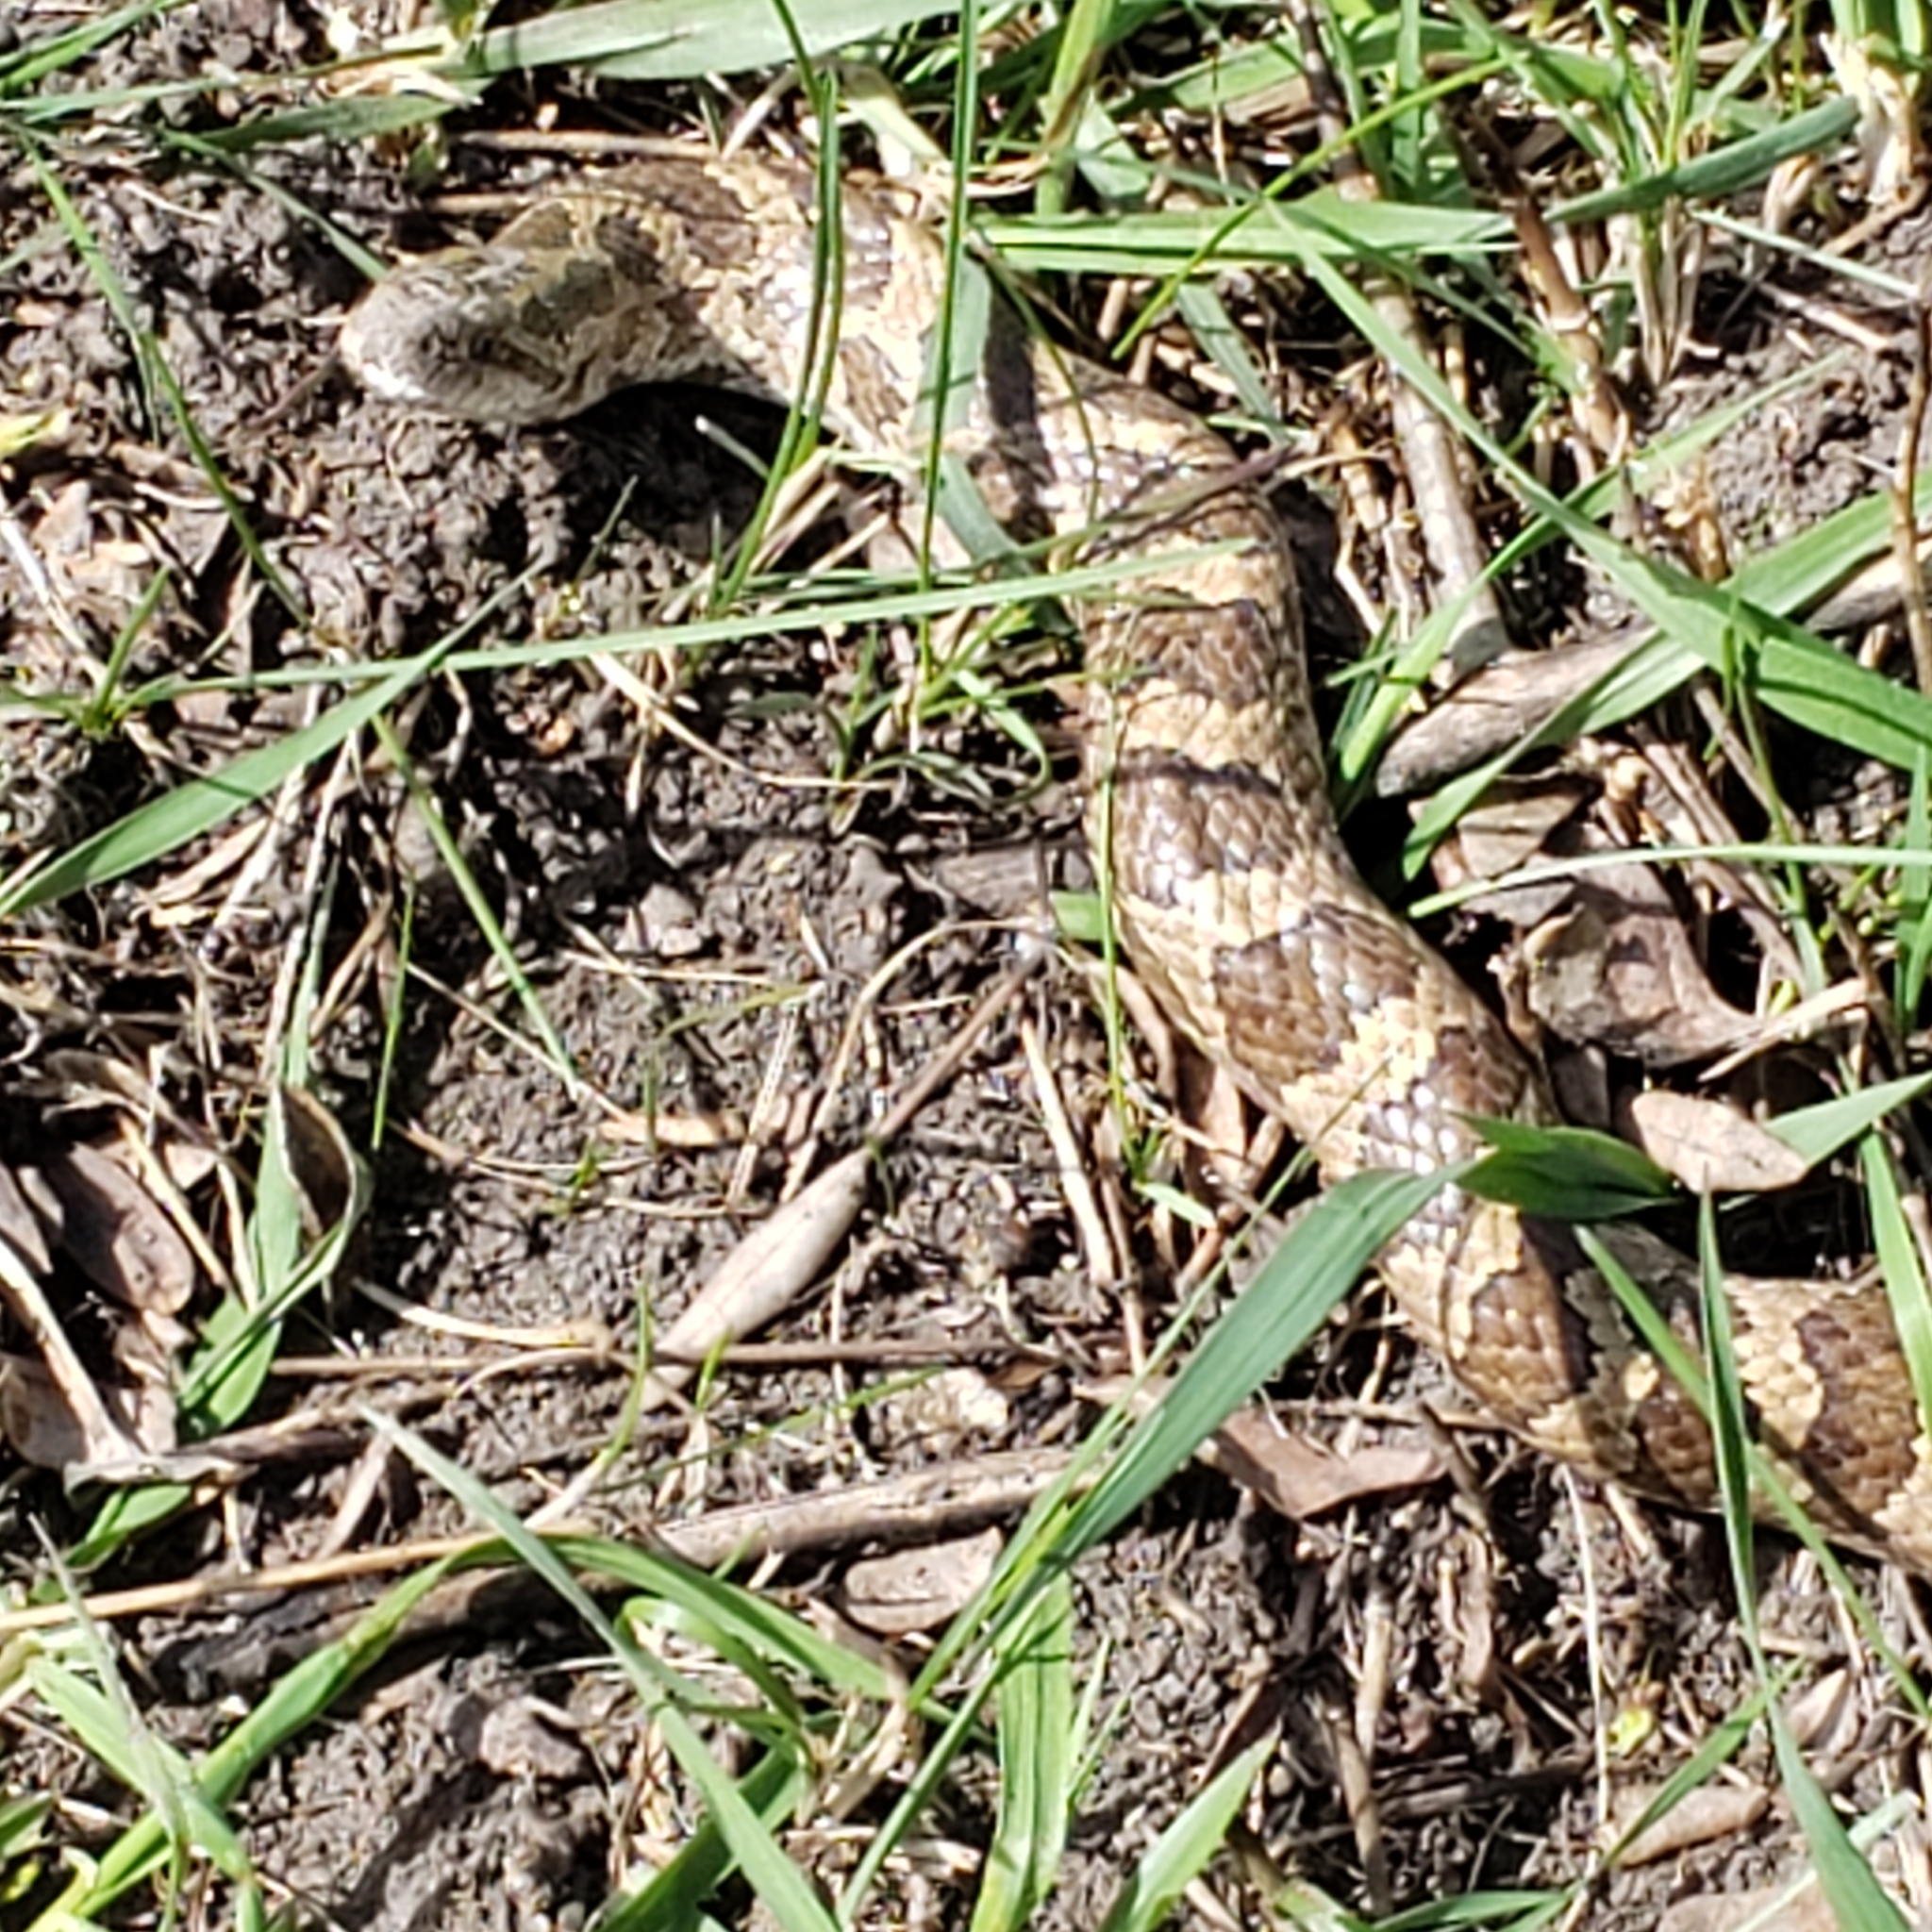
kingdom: Animalia
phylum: Chordata
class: Squamata
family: Colubridae
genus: Lampropeltis
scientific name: Lampropeltis calligaster
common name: Prairie kingsnake
